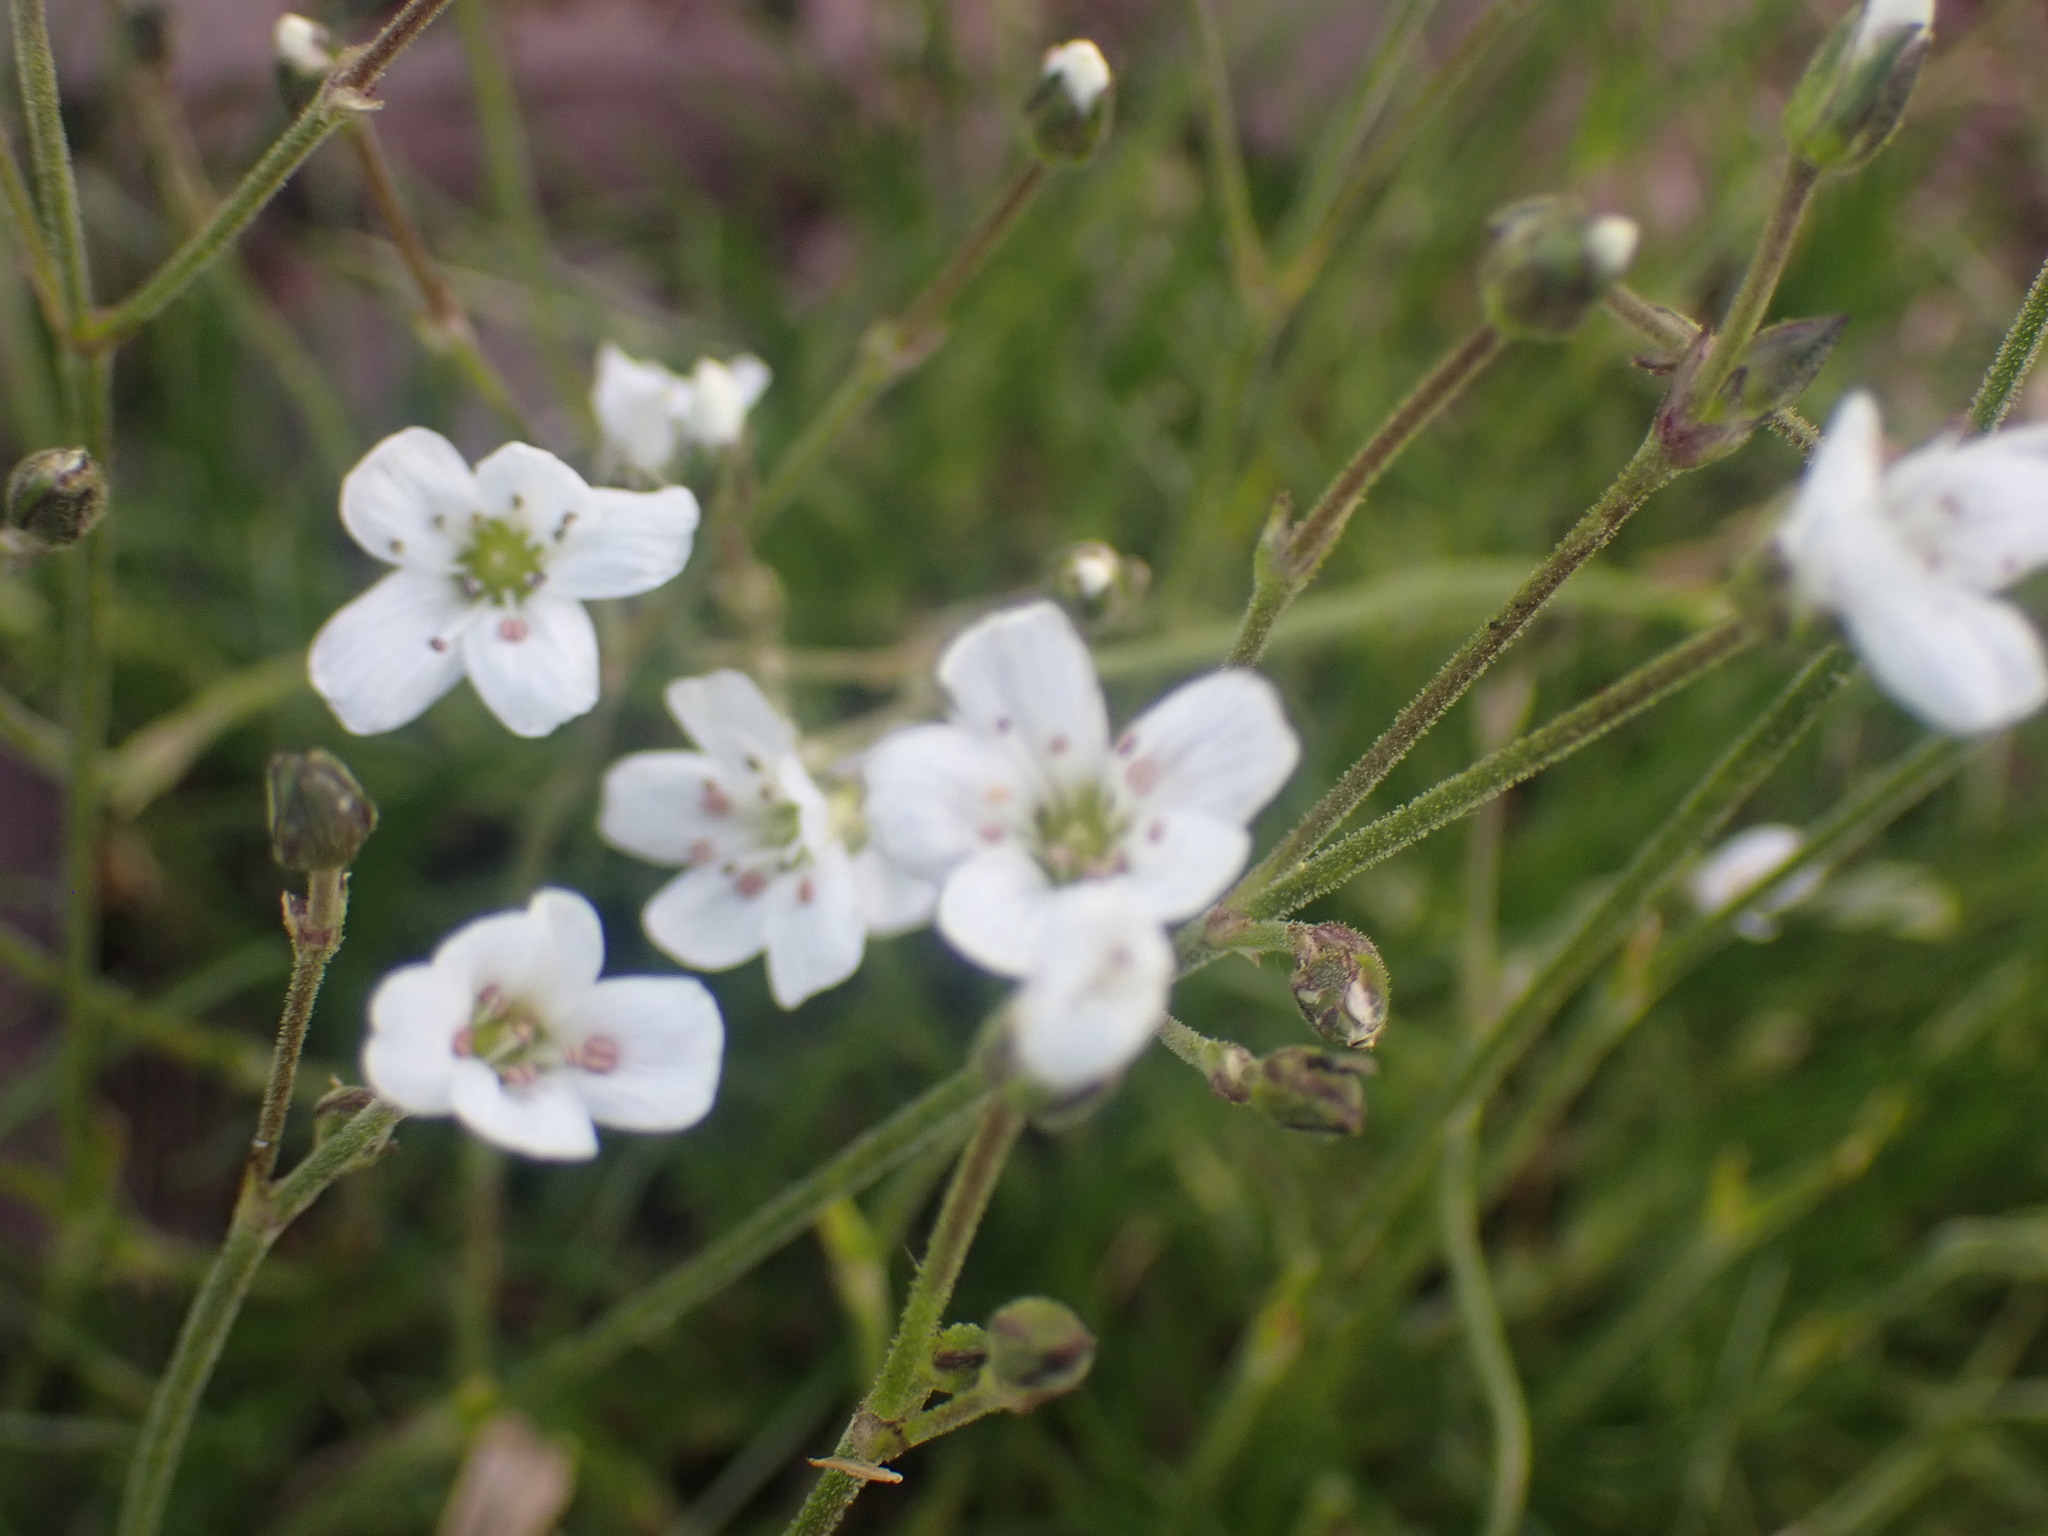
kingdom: Plantae
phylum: Tracheophyta
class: Magnoliopsida
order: Caryophyllales
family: Caryophyllaceae
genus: Eremogone
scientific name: Eremogone capillaris
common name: Slender mountain sandwort
